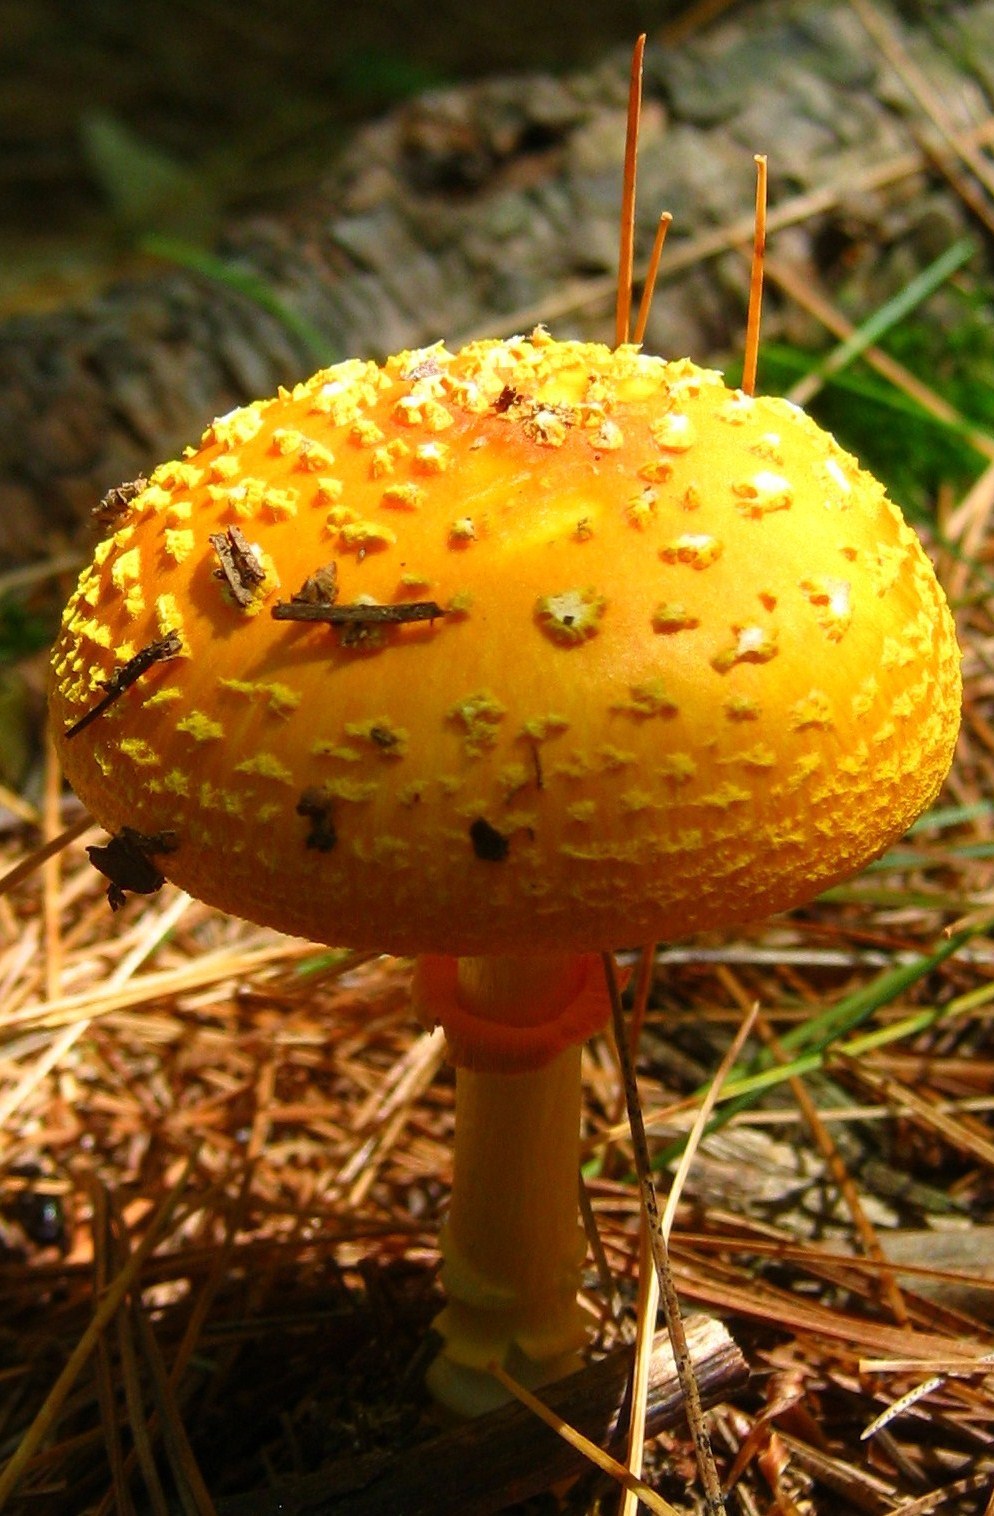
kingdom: Fungi
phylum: Basidiomycota
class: Agaricomycetes
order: Agaricales
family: Amanitaceae
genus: Amanita
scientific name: Amanita flavoconia
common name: Yellow patches
